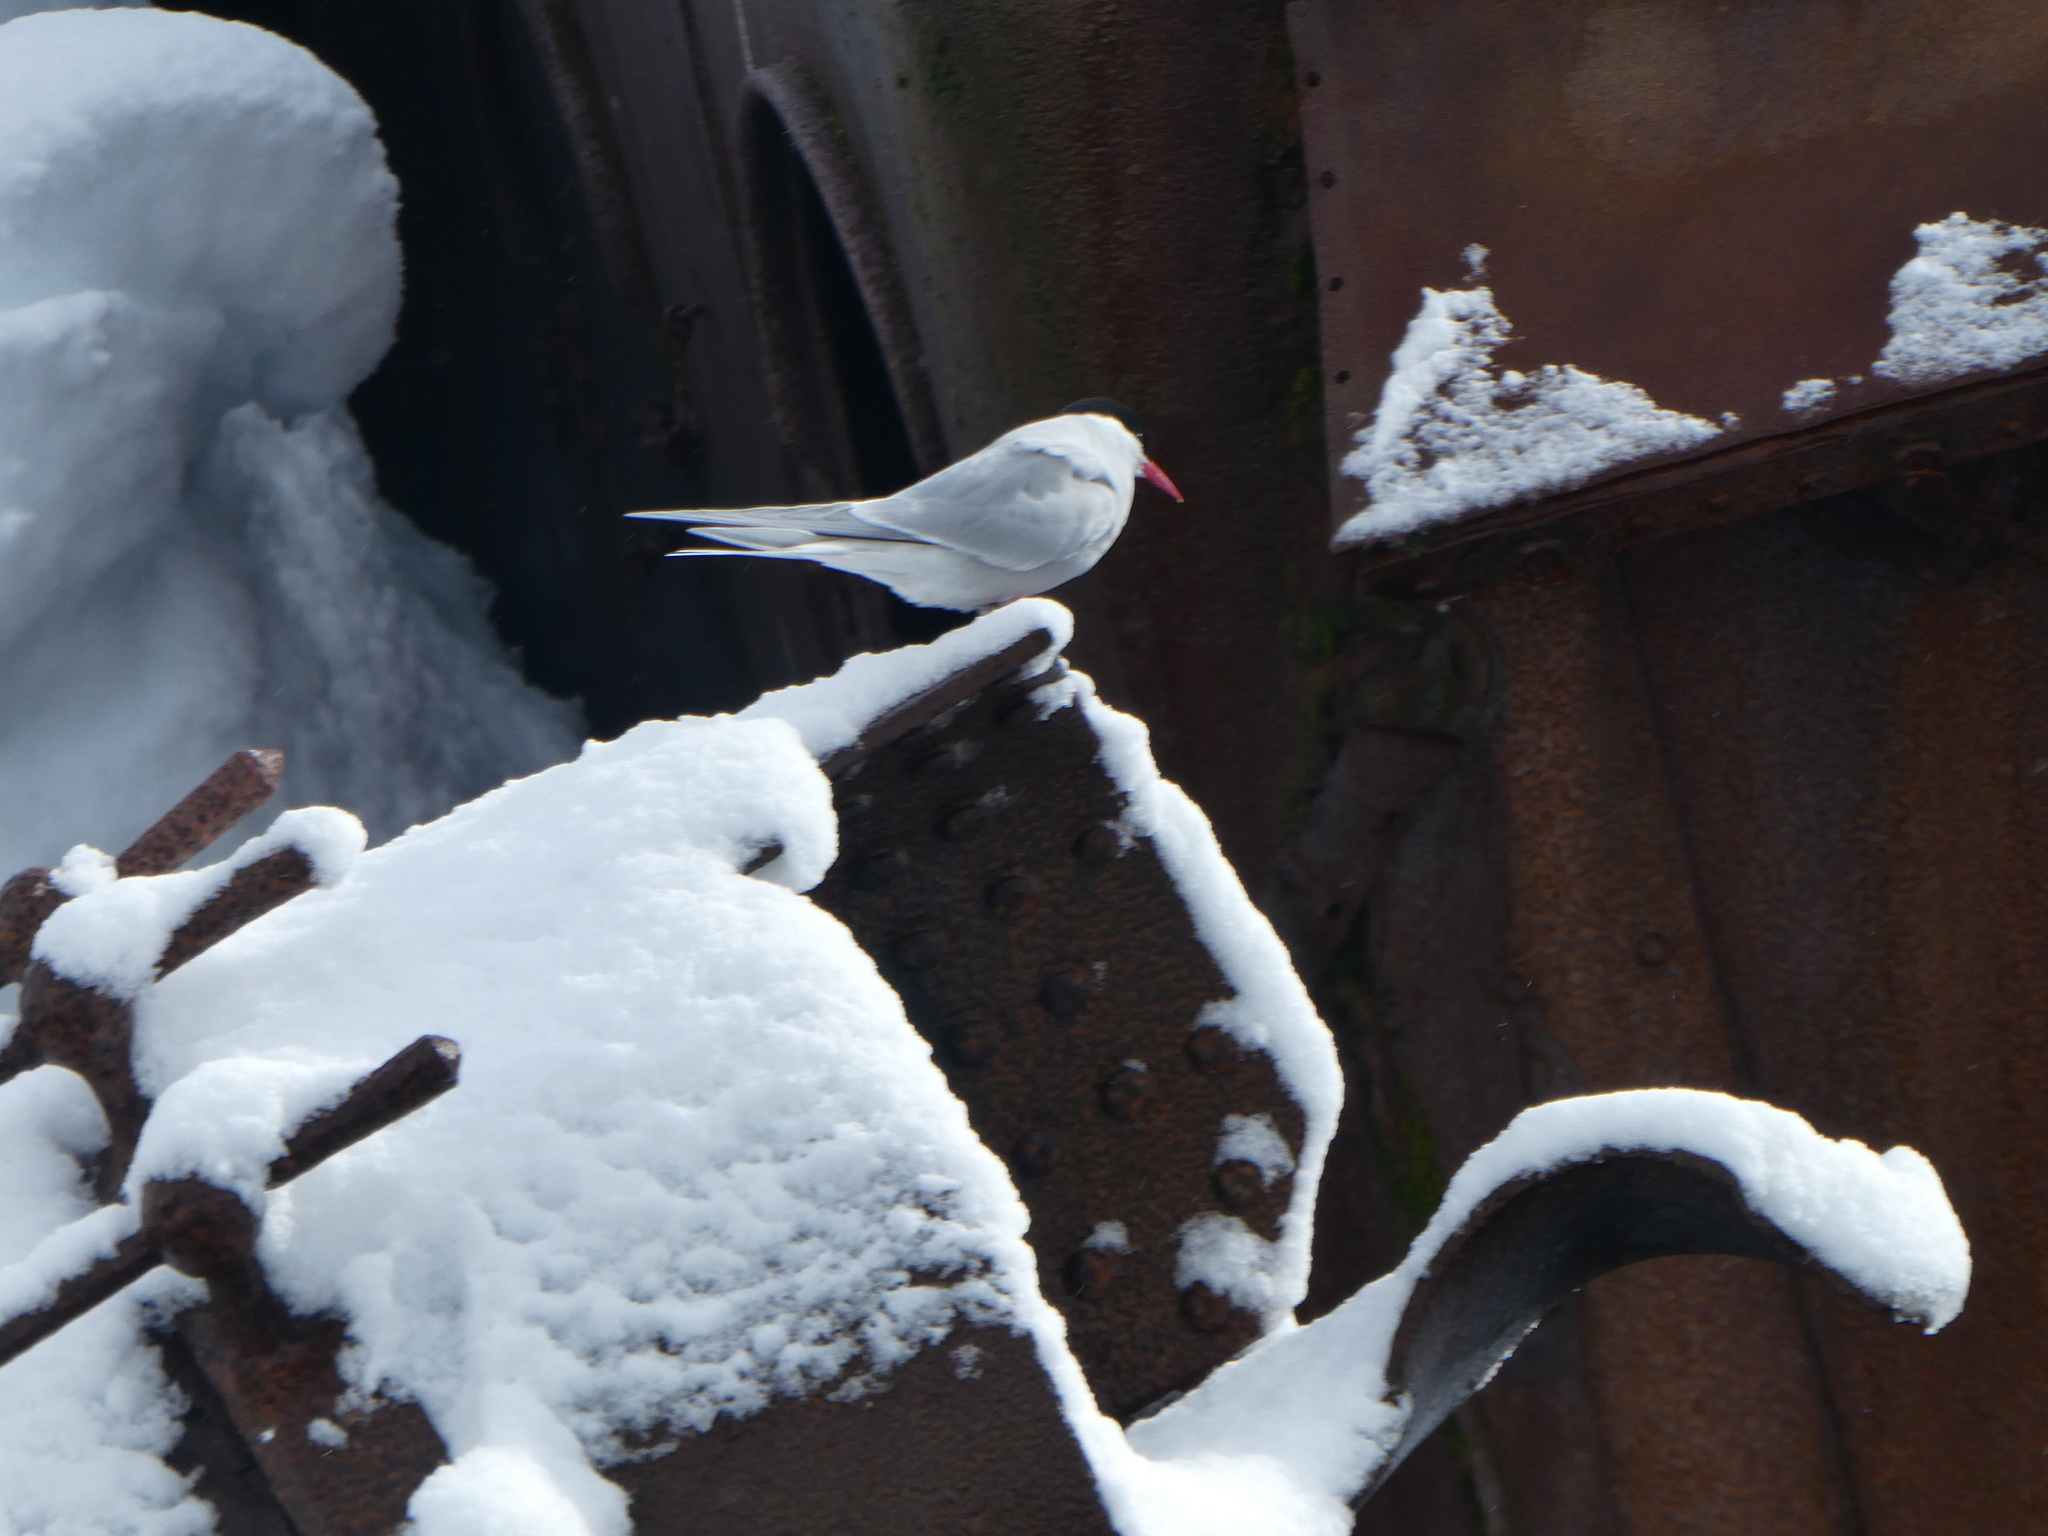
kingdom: Animalia
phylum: Chordata
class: Aves
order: Charadriiformes
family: Laridae
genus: Sterna
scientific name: Sterna vittata
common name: Antarctic tern
